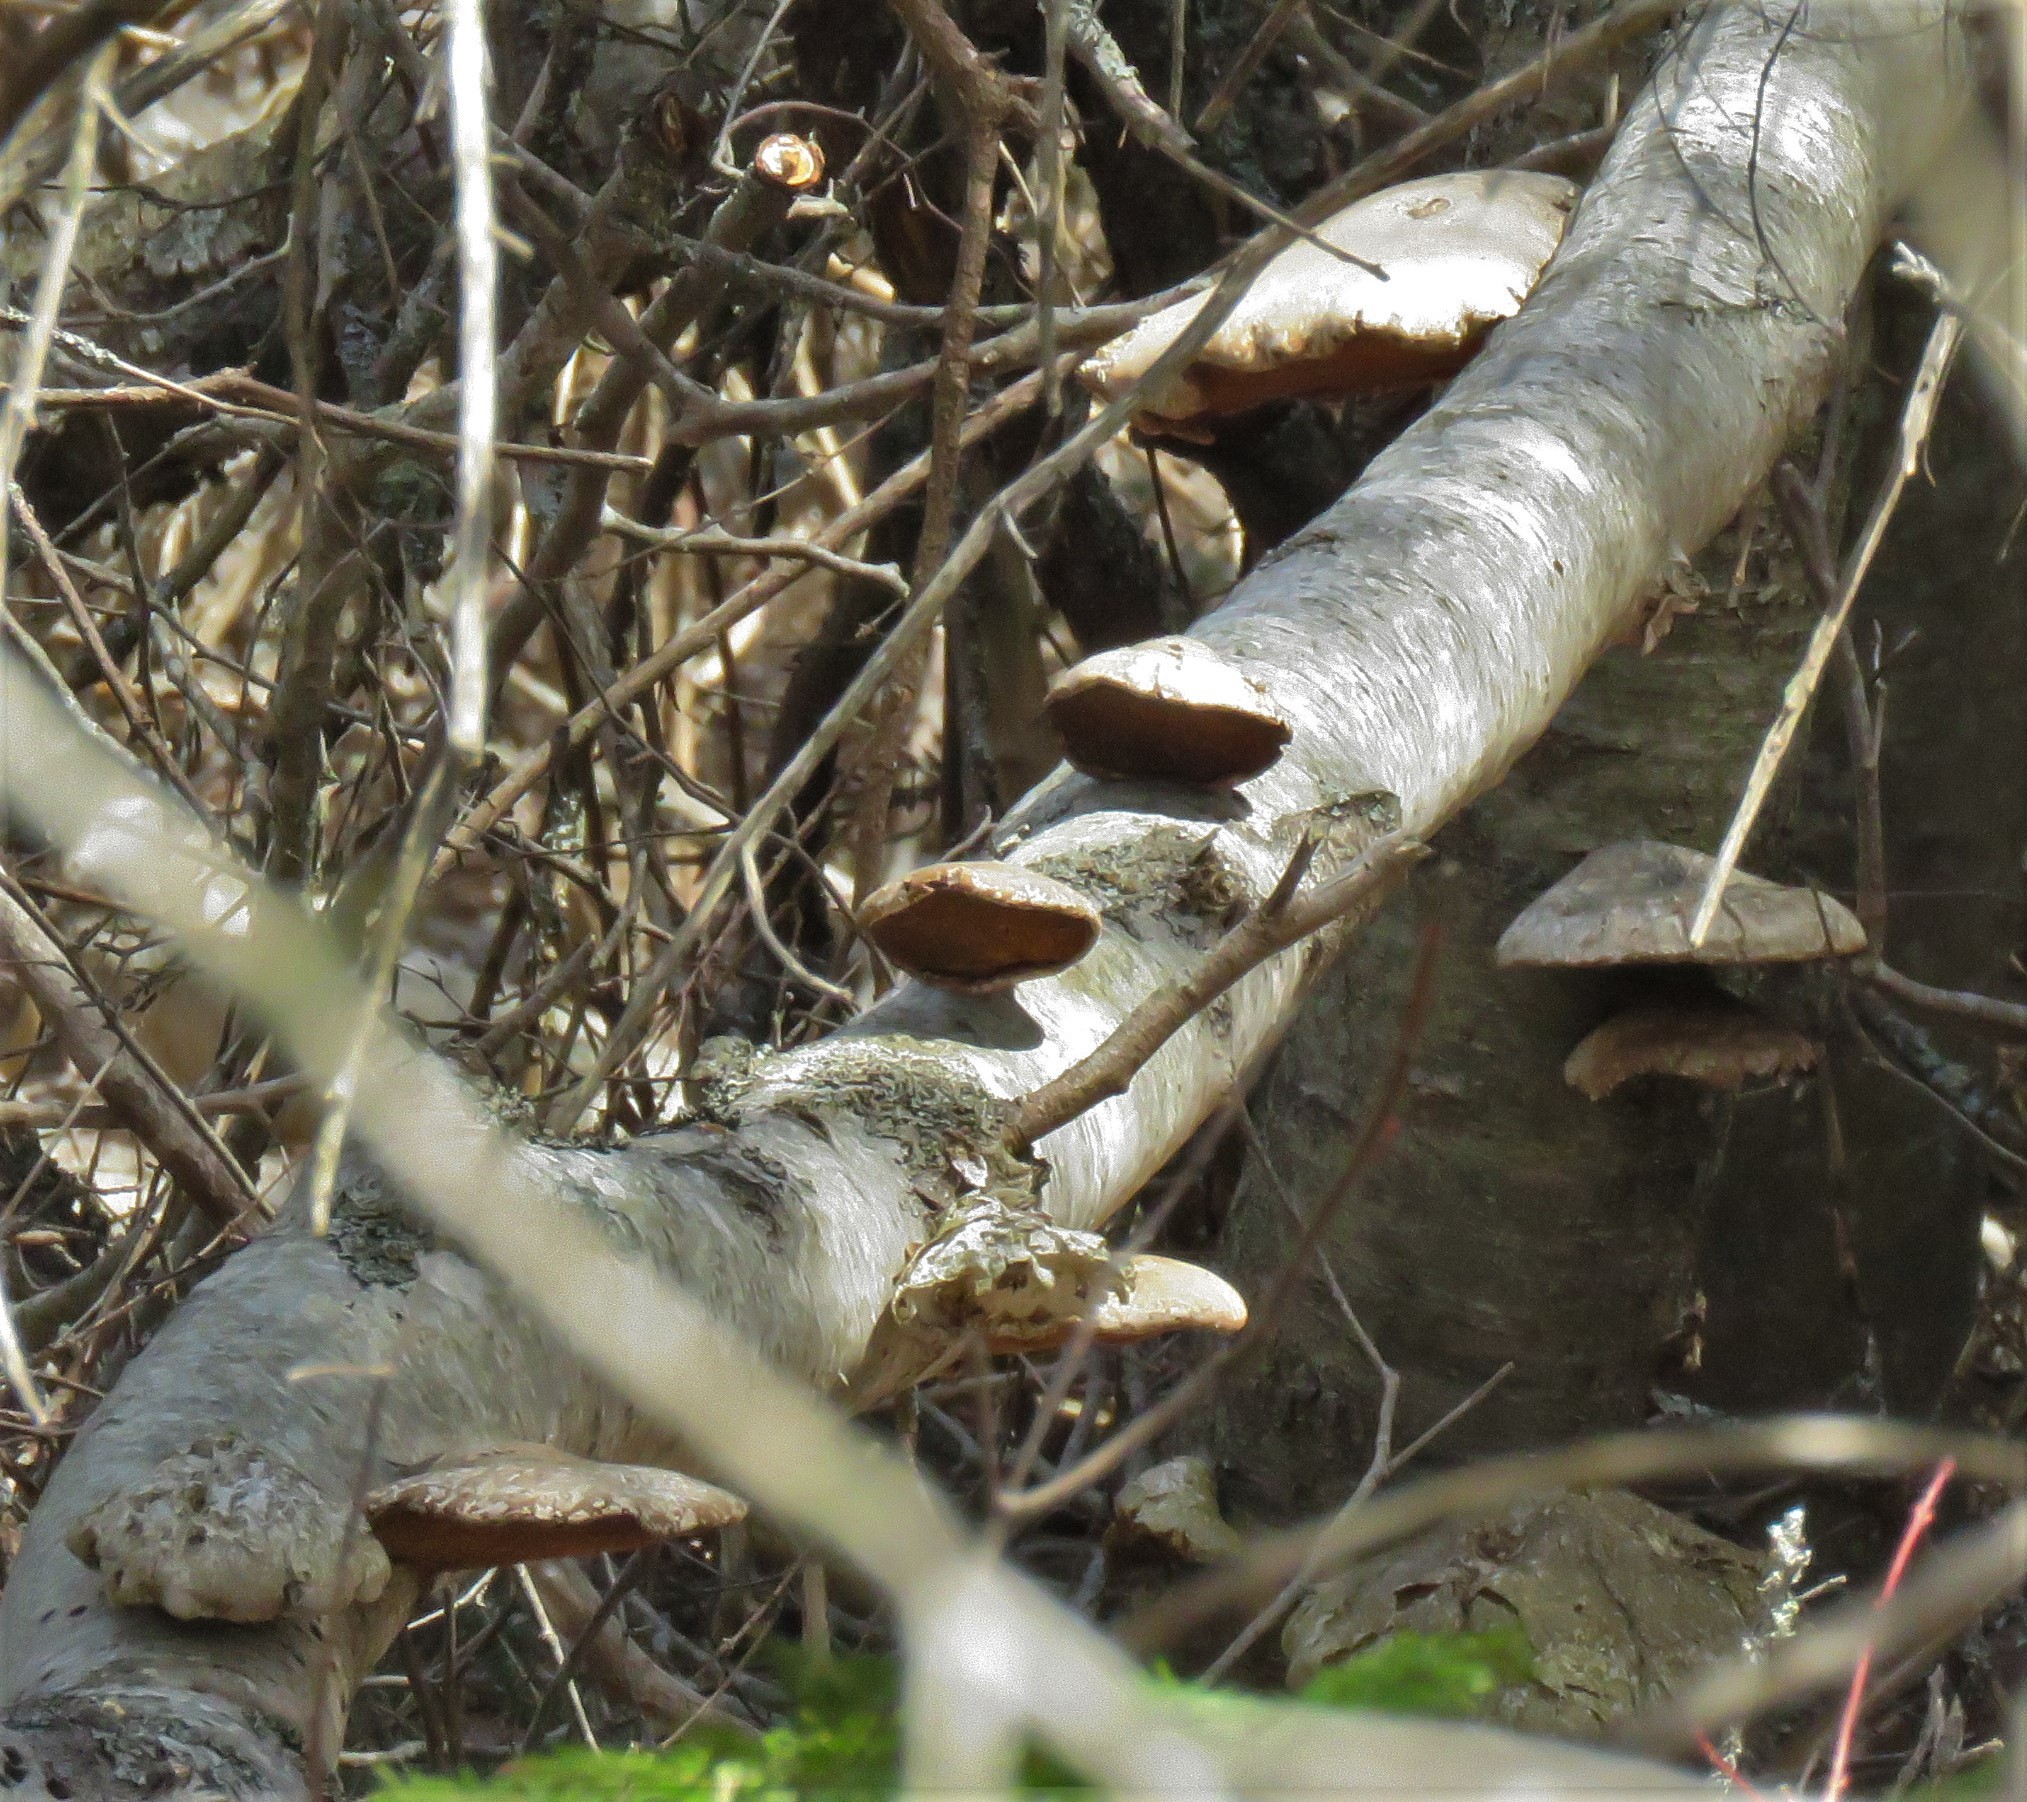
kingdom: Fungi
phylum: Basidiomycota
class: Agaricomycetes
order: Polyporales
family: Fomitopsidaceae
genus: Fomitopsis
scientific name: Fomitopsis betulina
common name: Birch polypore
